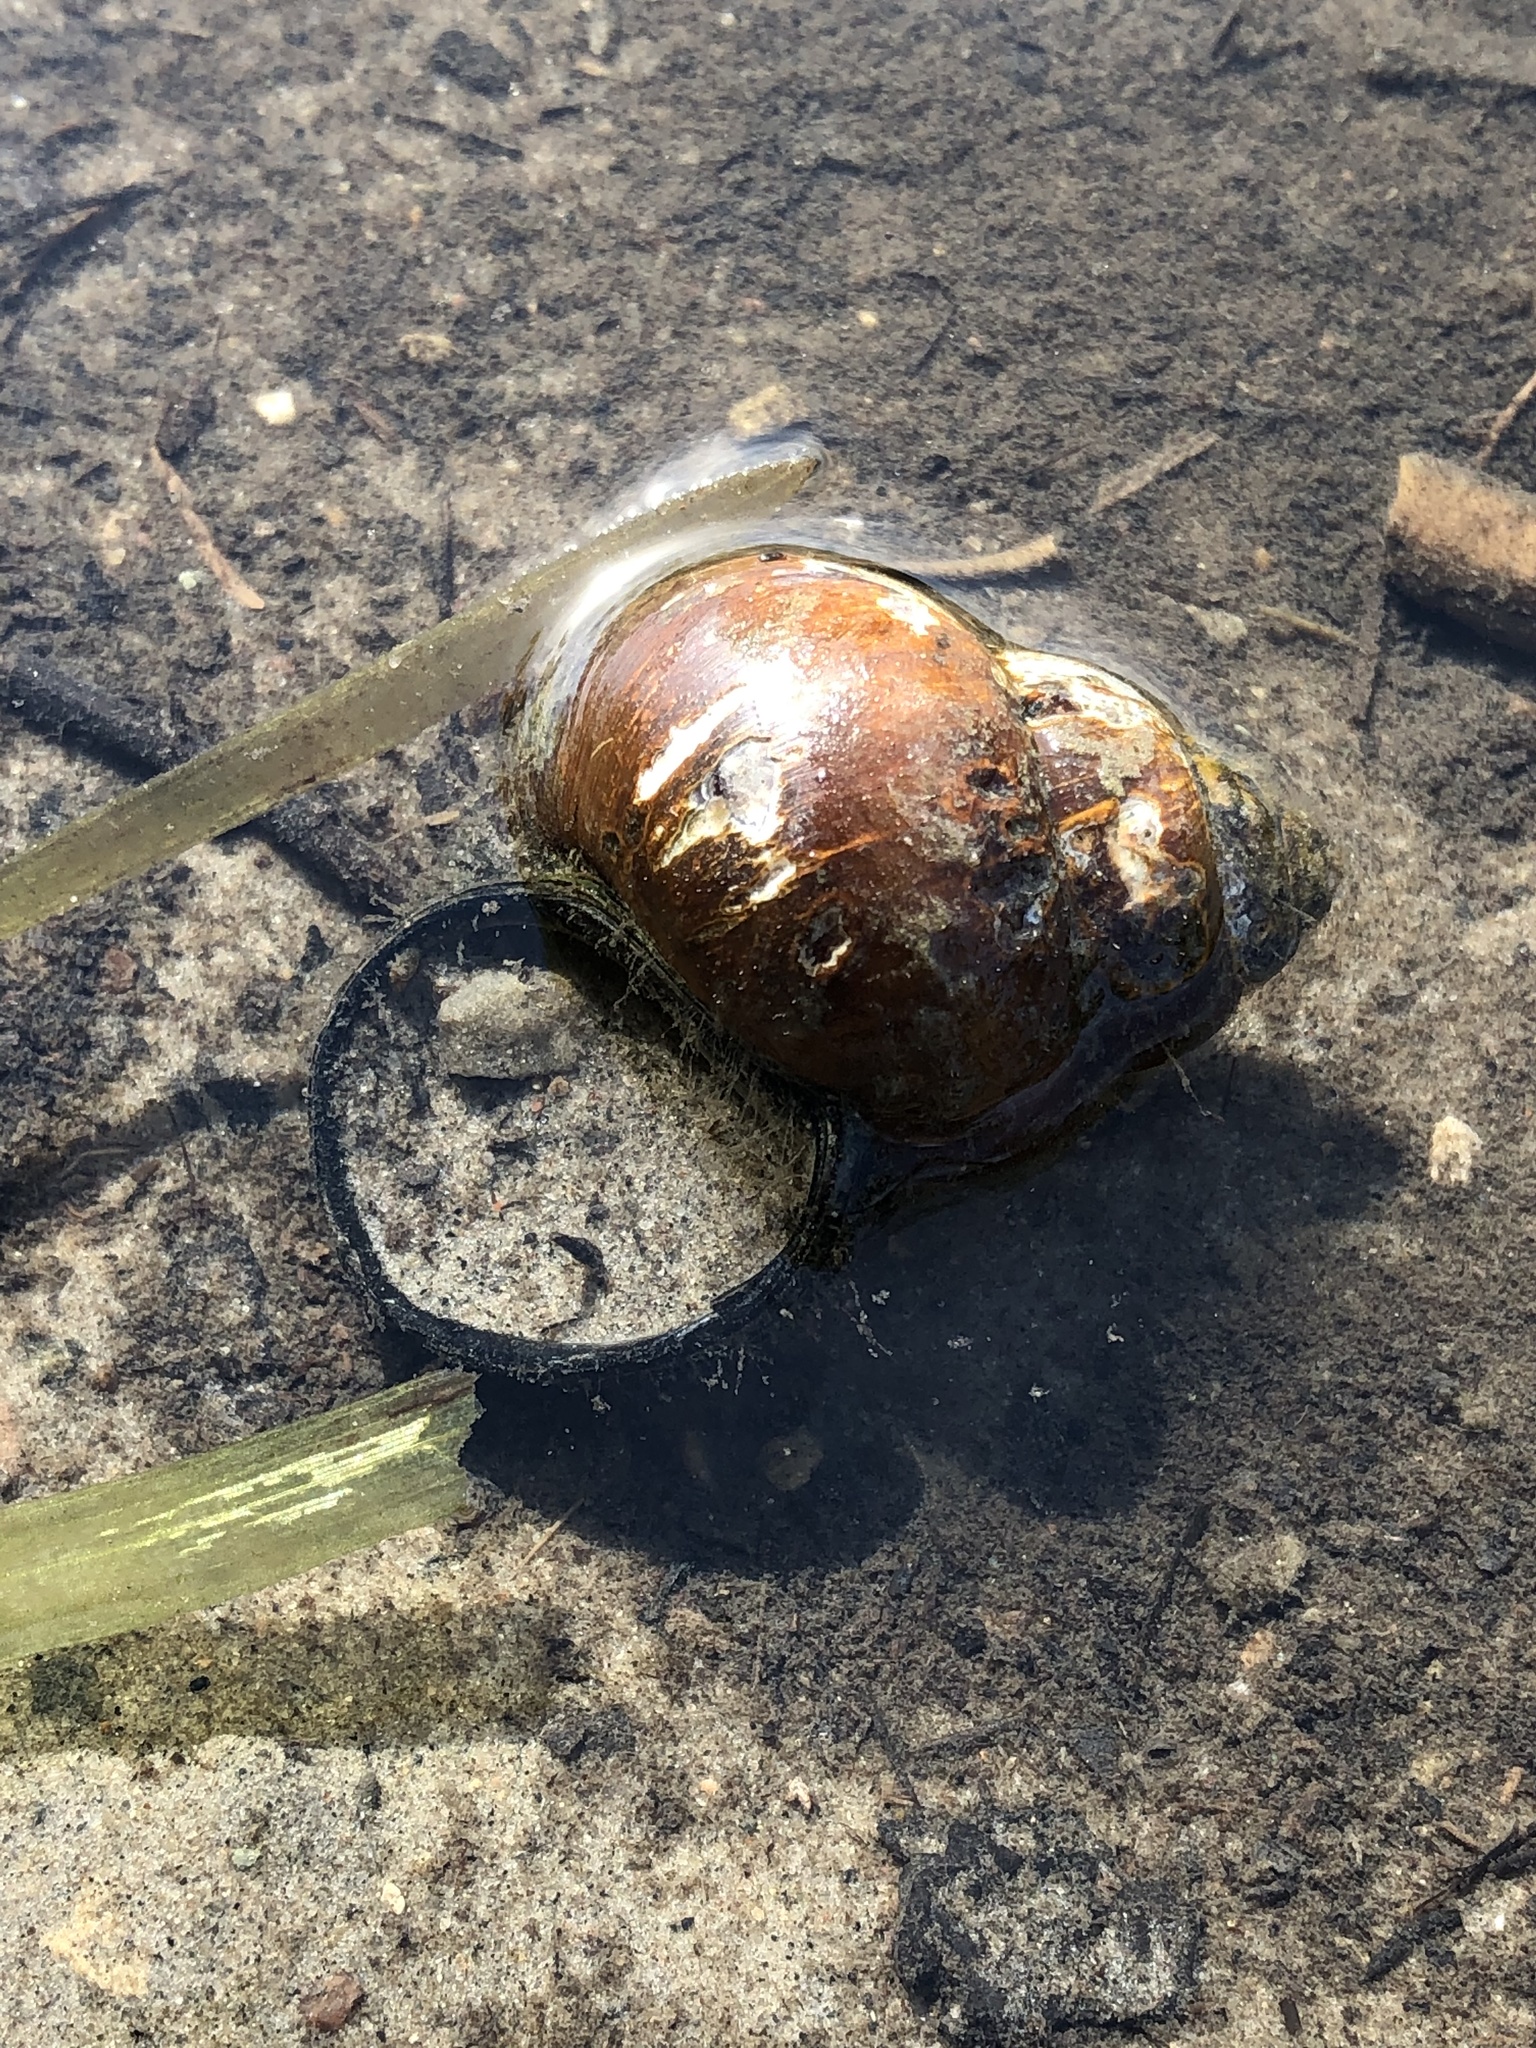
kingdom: Animalia
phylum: Mollusca
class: Gastropoda
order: Architaenioglossa
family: Viviparidae
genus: Cipangopaludina
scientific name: Cipangopaludina chinensis
